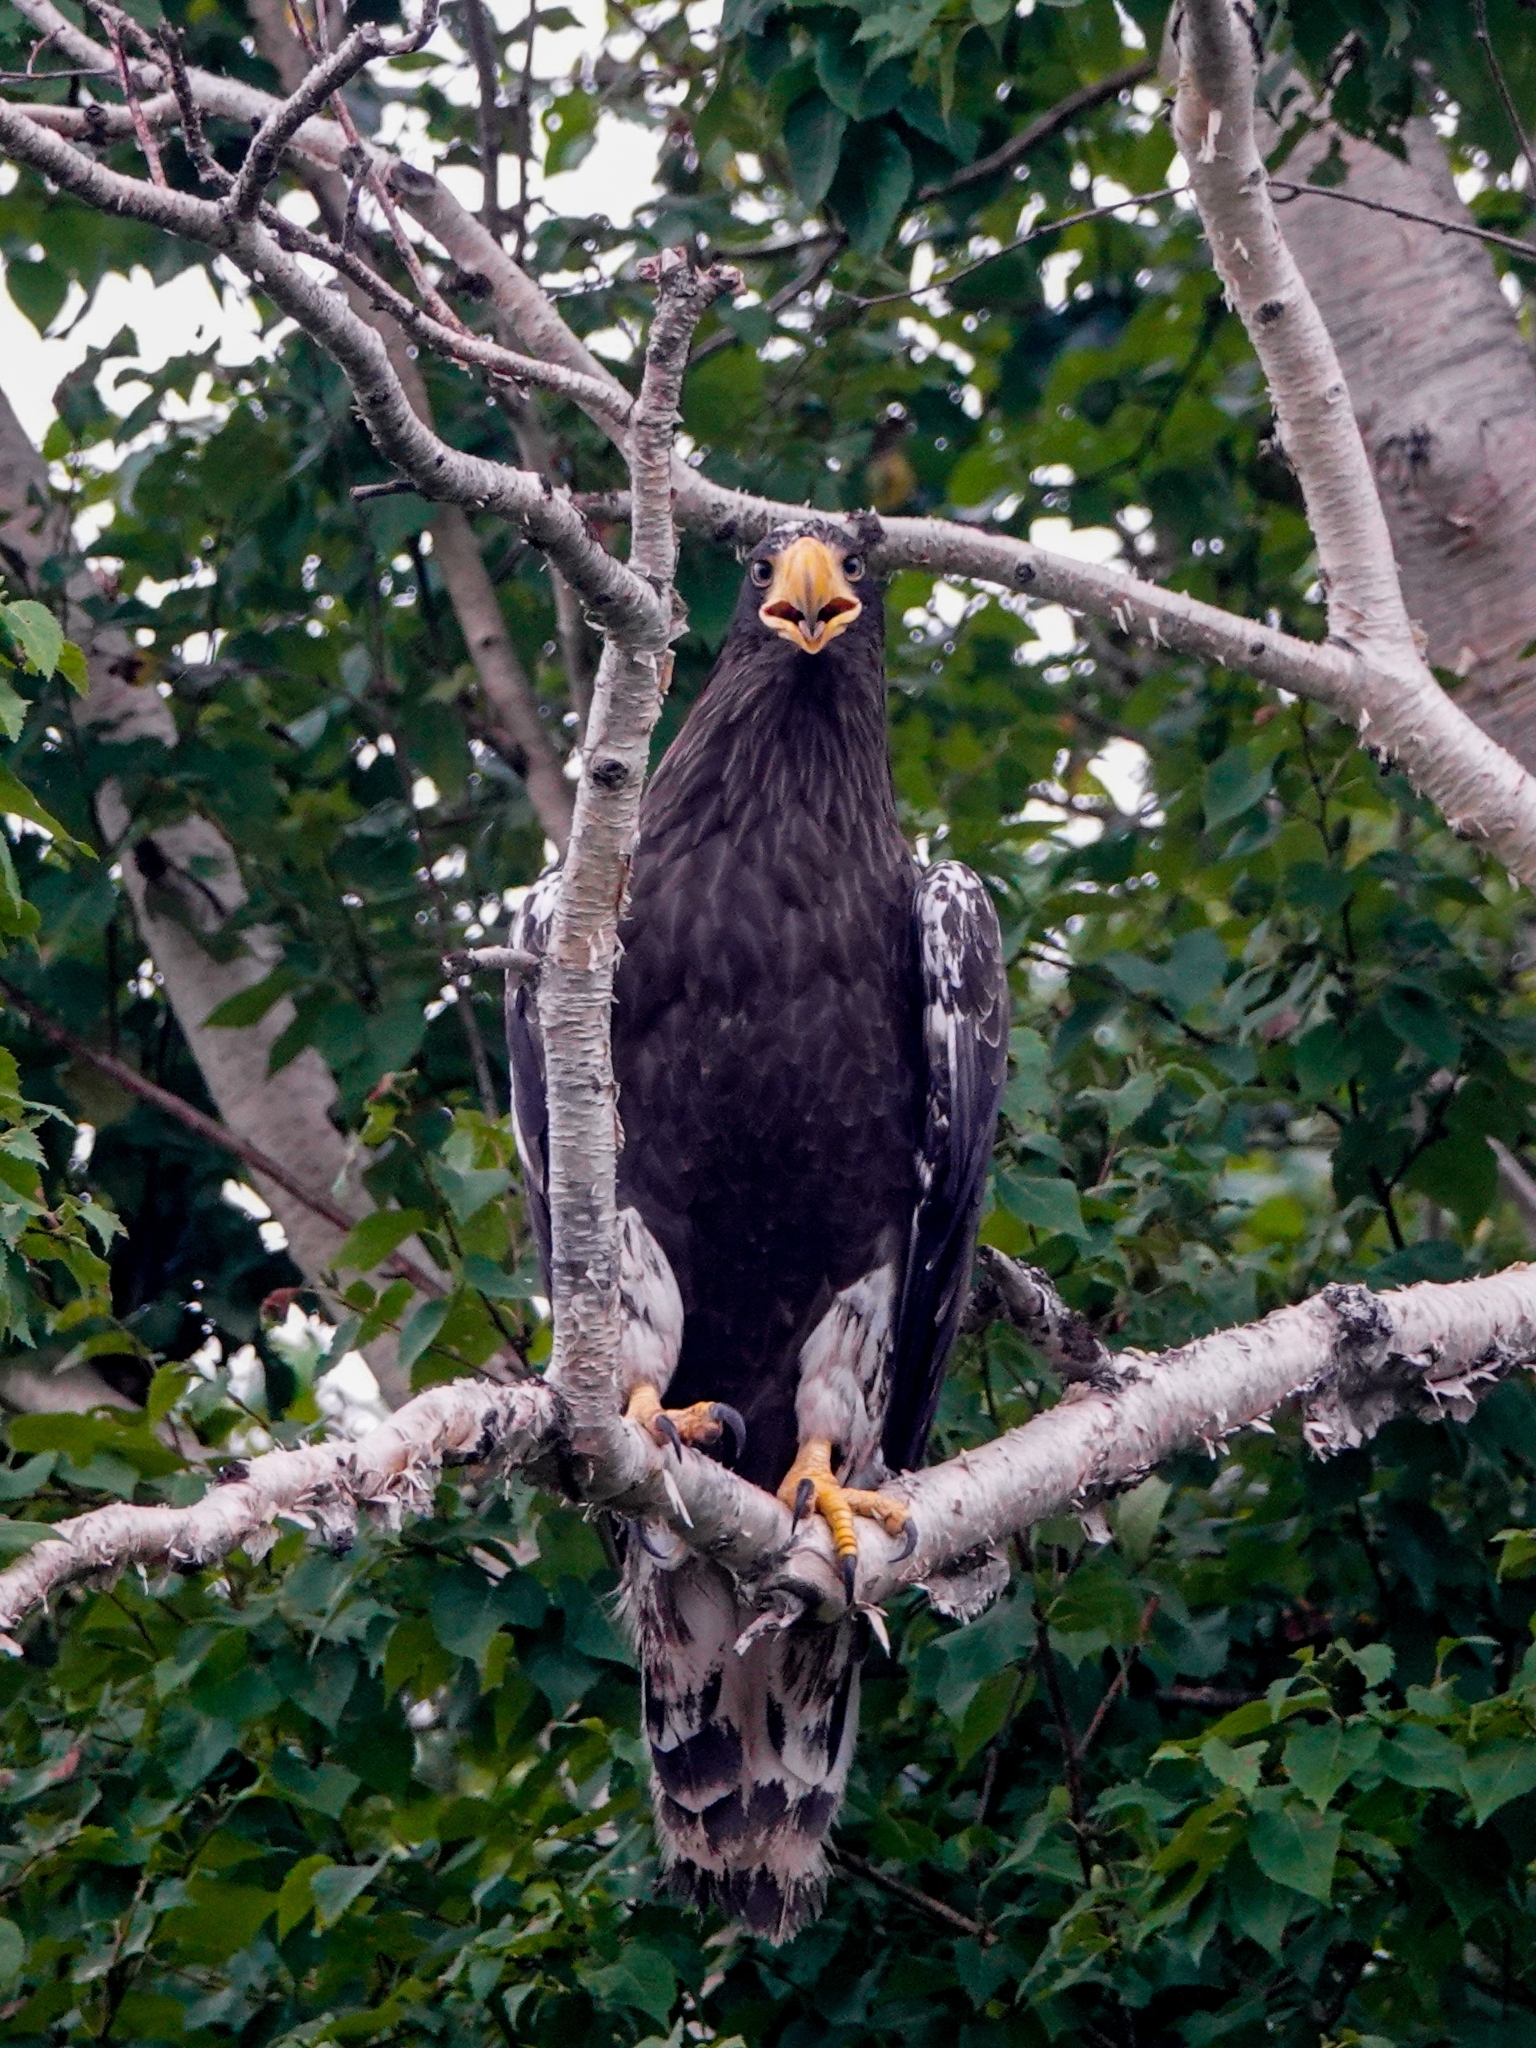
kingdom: Animalia
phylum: Chordata
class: Aves
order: Accipitriformes
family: Accipitridae
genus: Haliaeetus
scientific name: Haliaeetus pelagicus
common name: Steller's sea eagle
